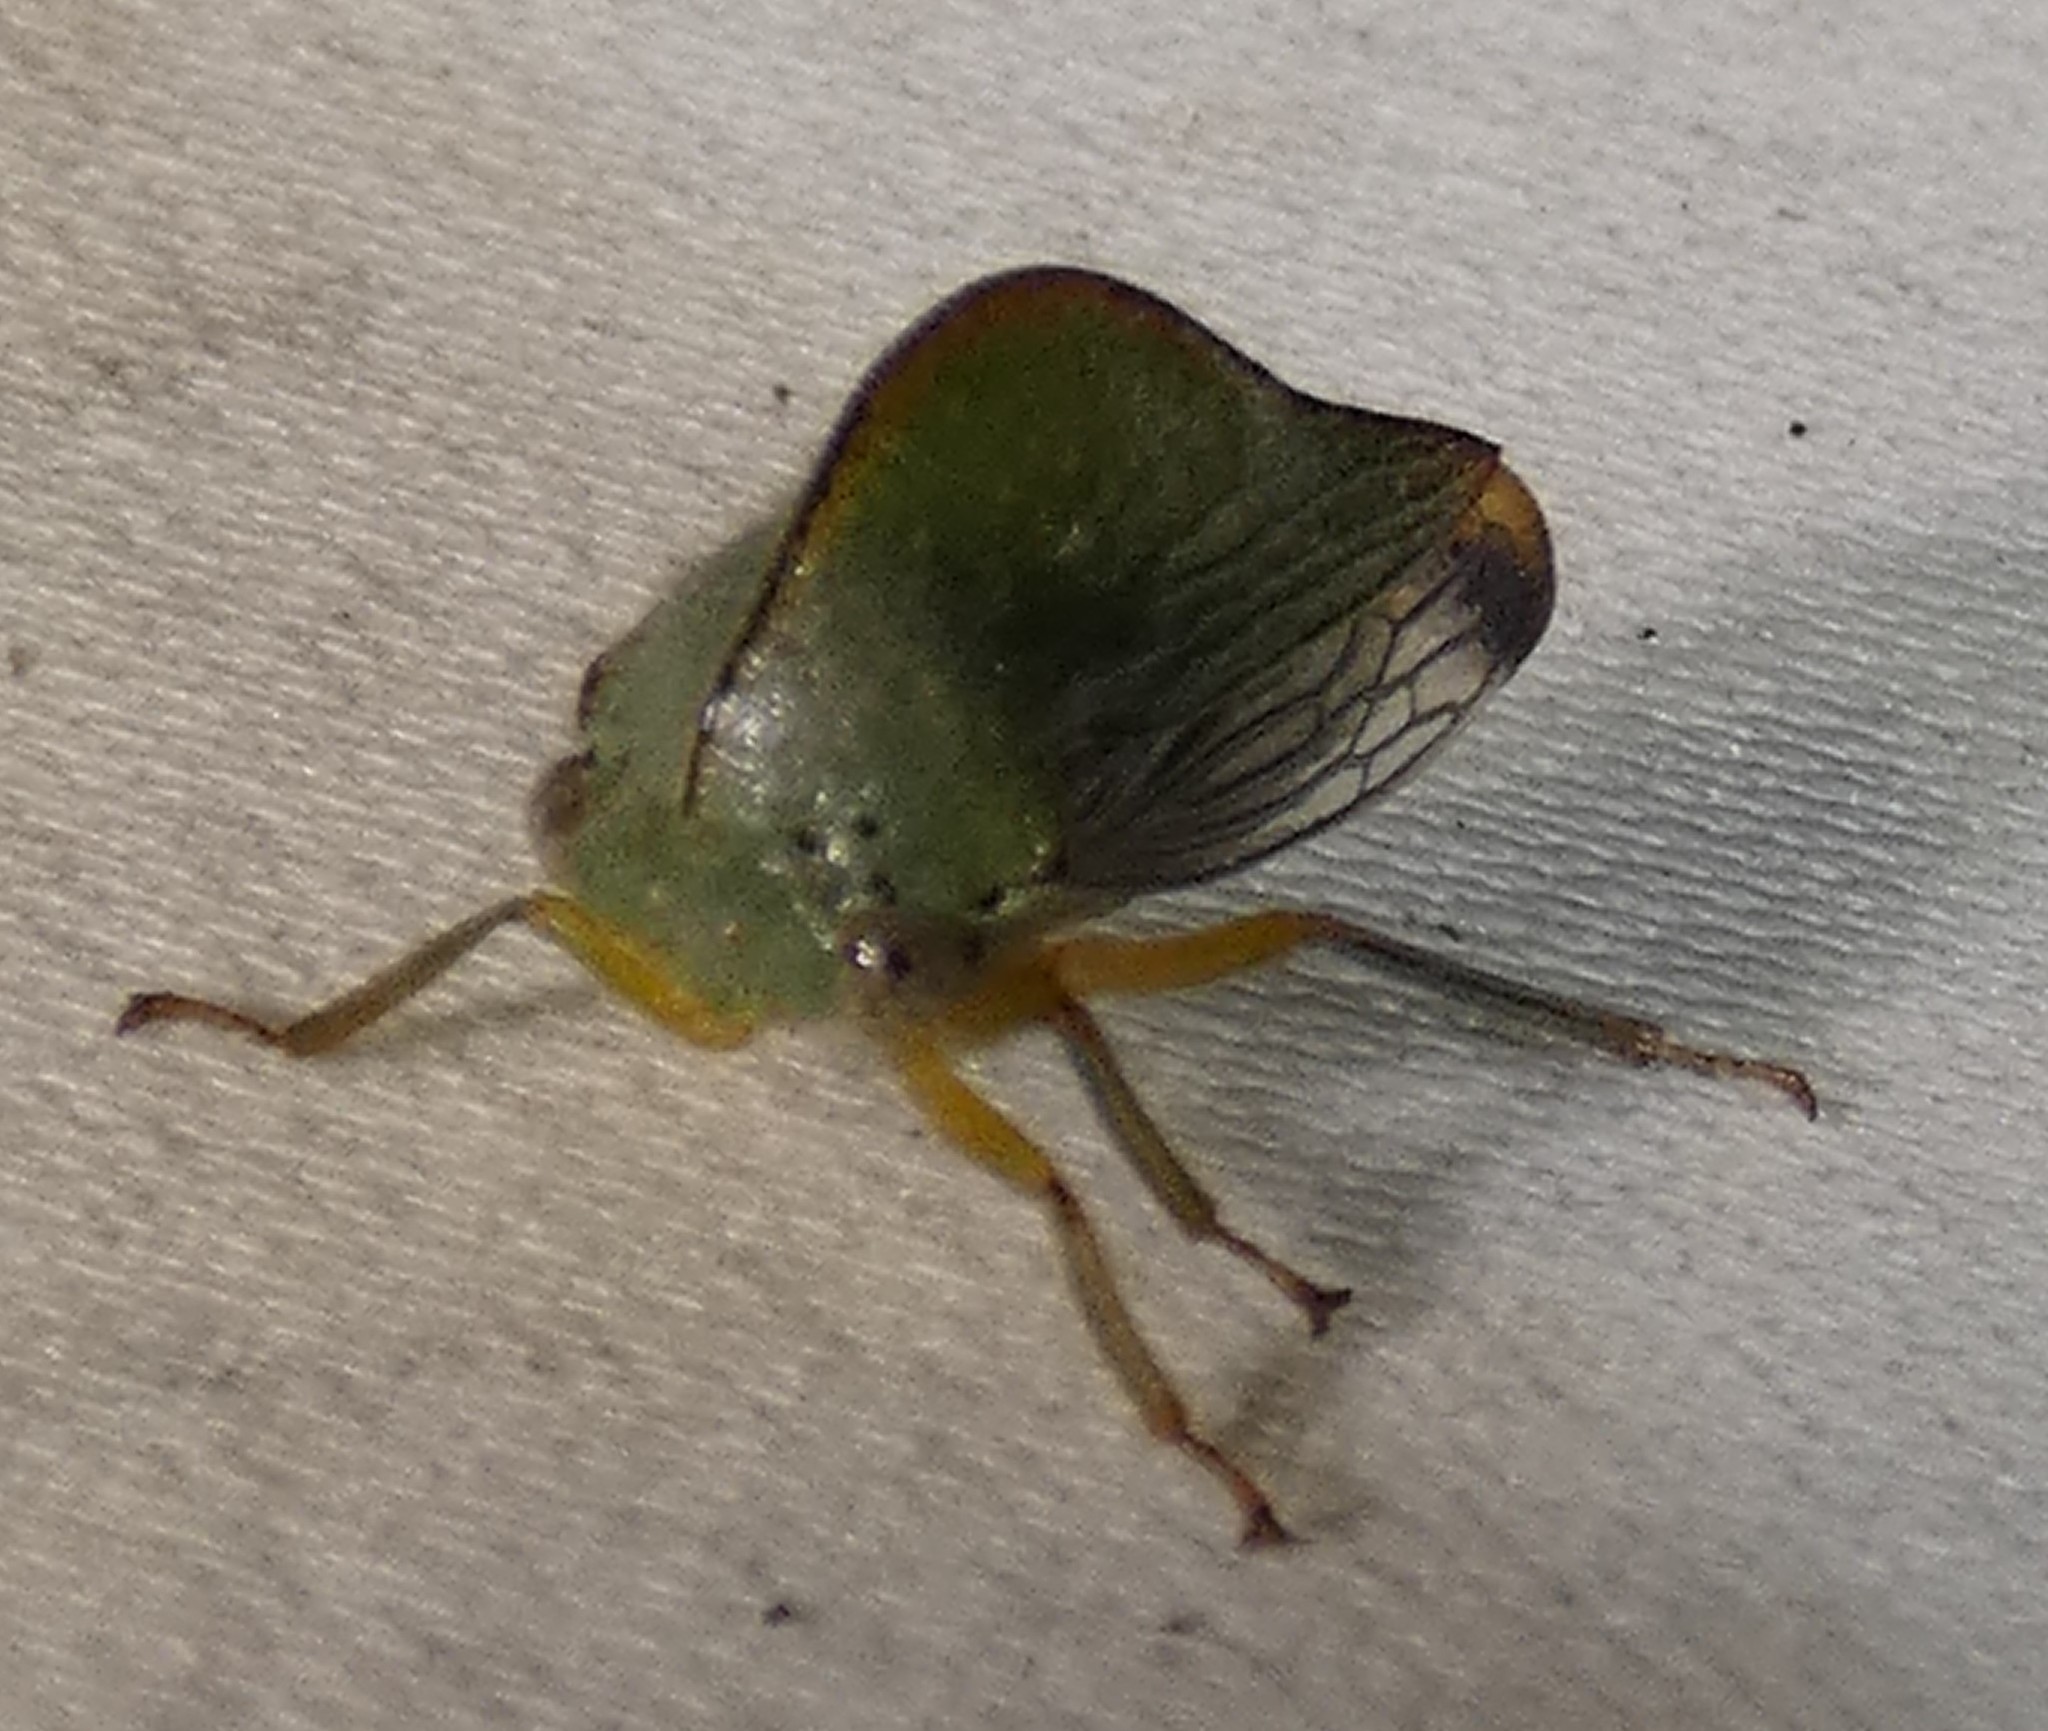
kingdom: Animalia
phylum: Arthropoda
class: Insecta
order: Hemiptera
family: Membracidae
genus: Archasia
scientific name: Archasia pallida
